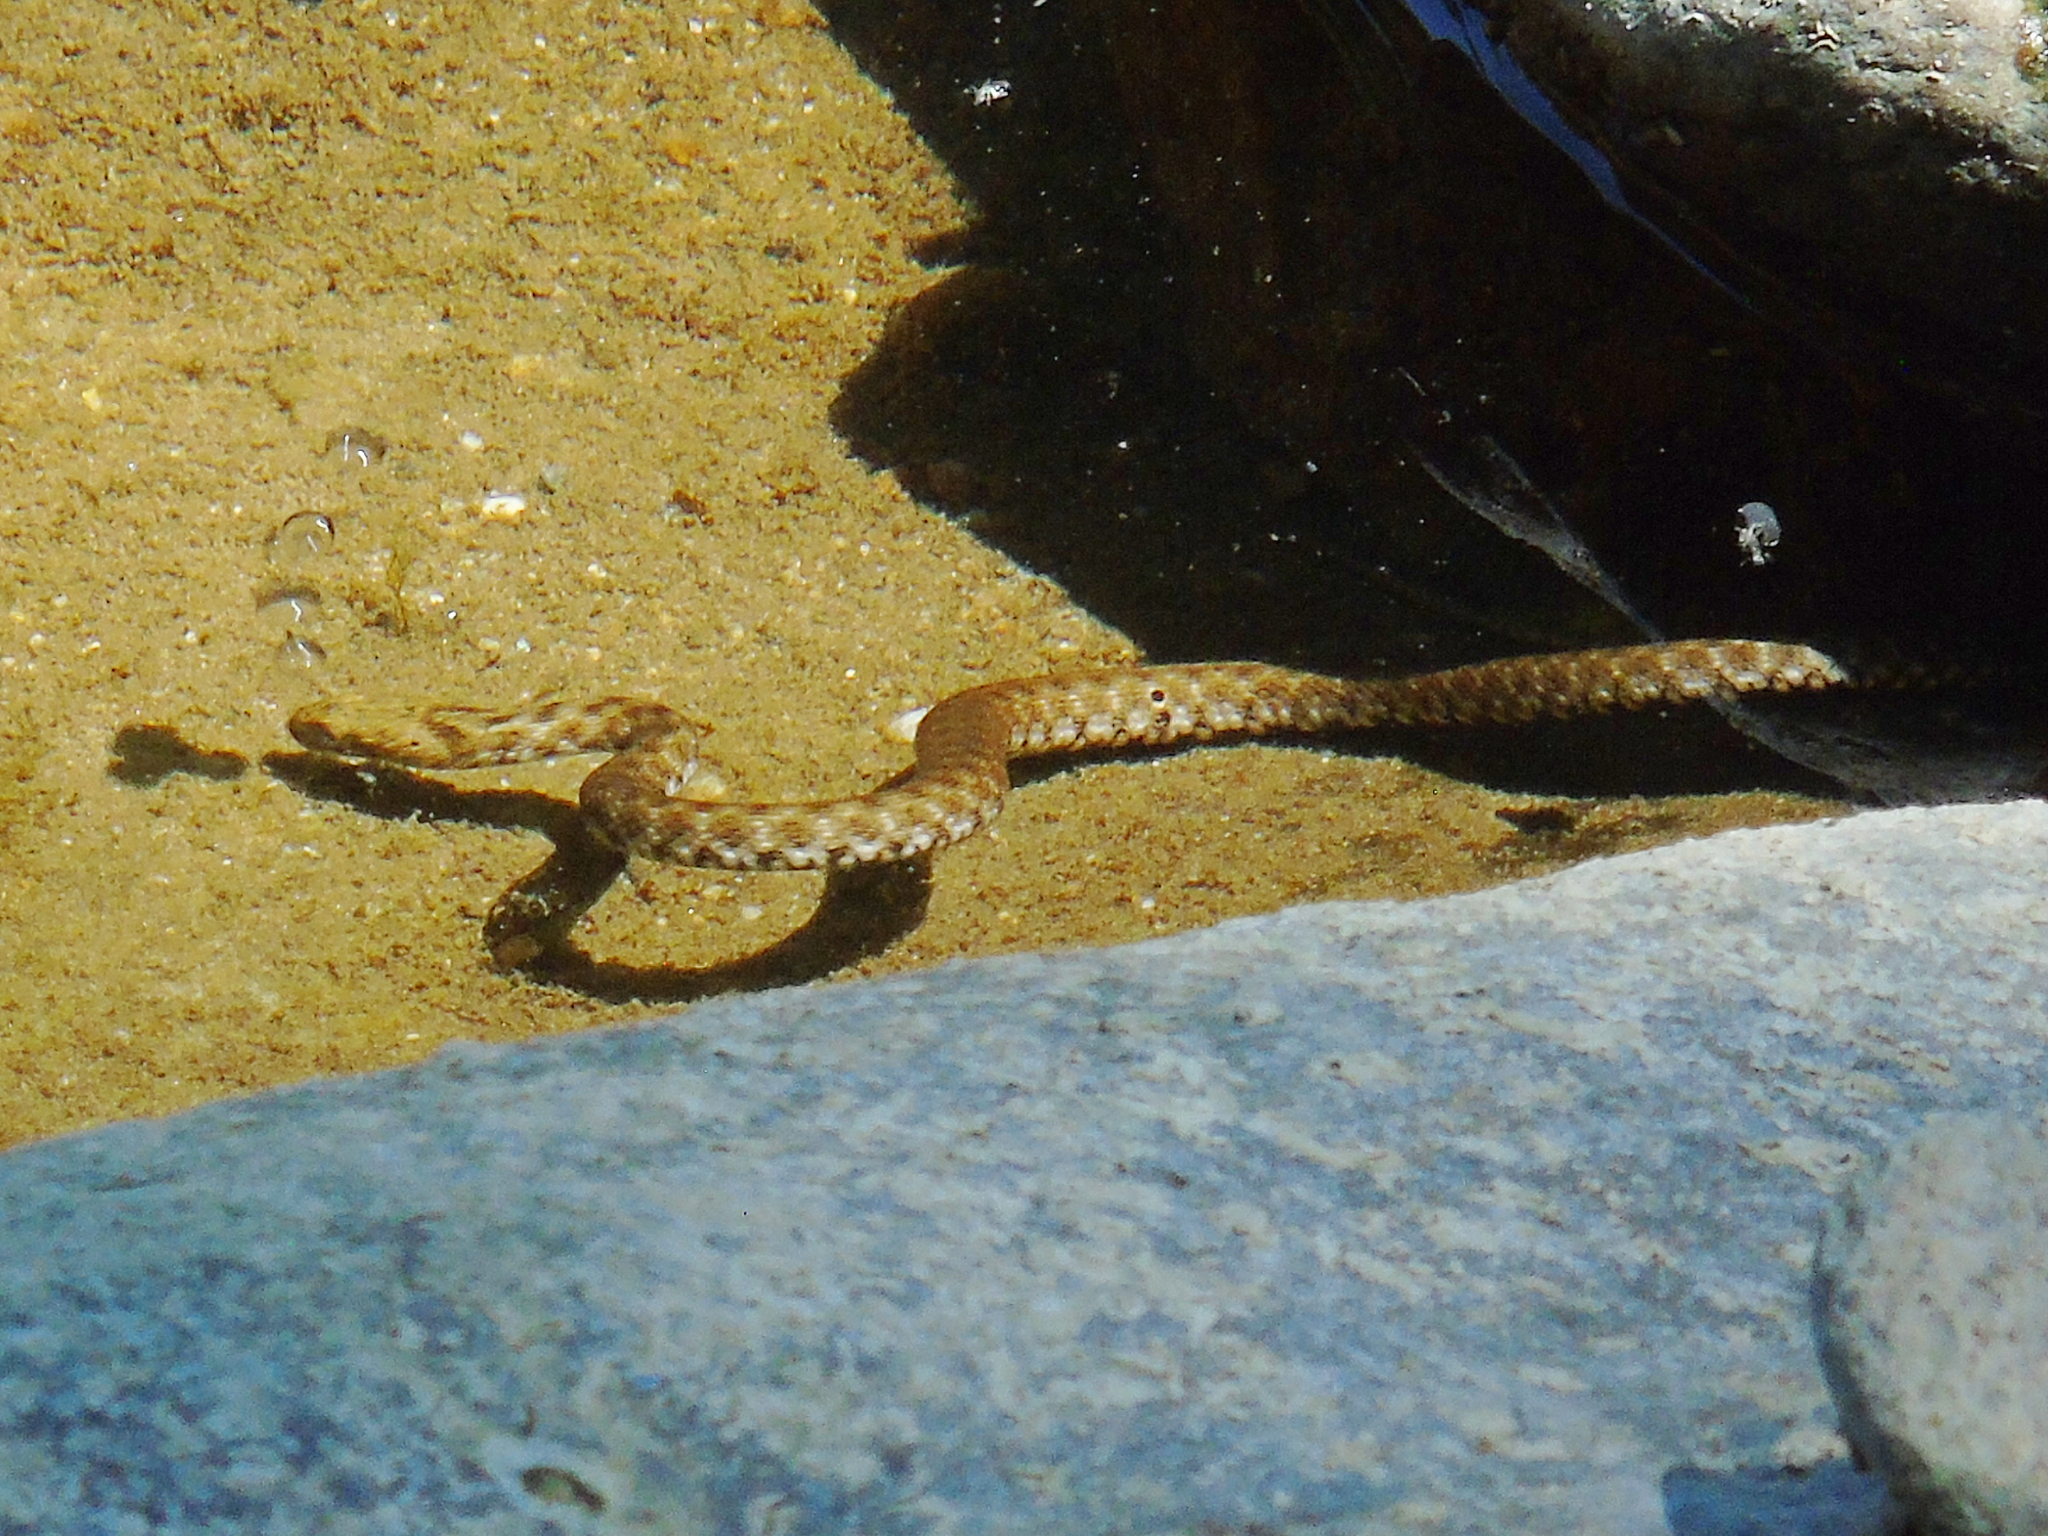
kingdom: Animalia
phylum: Chordata
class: Squamata
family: Colubridae
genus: Natrix
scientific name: Natrix tessellata
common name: Dice snake
